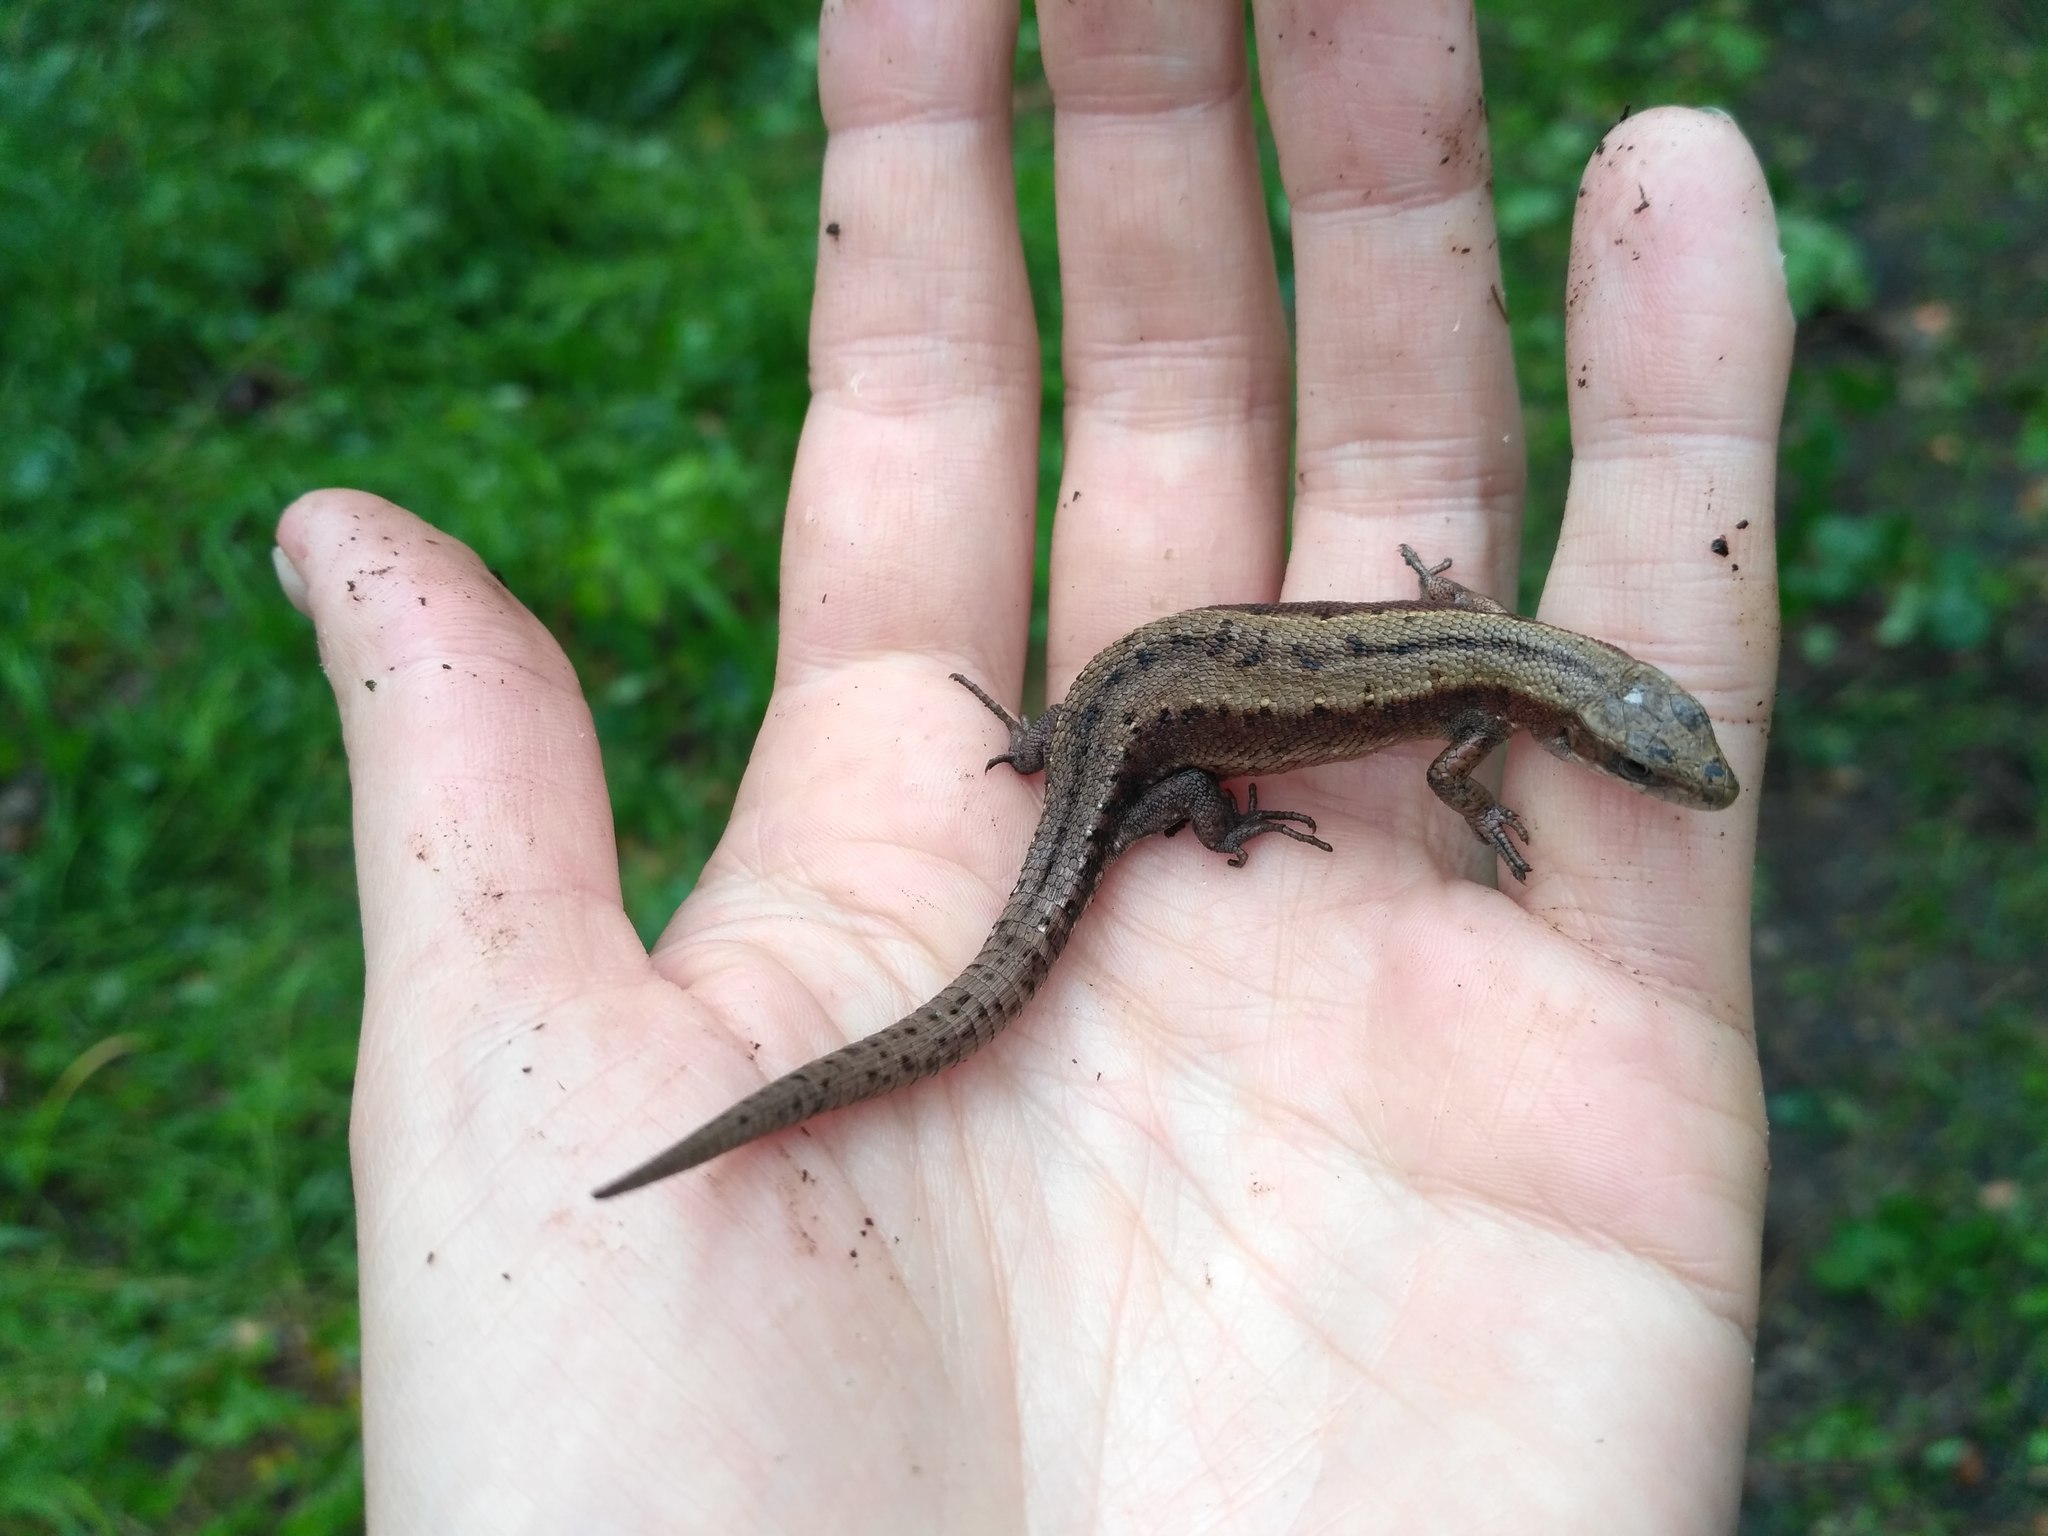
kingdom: Animalia
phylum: Chordata
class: Squamata
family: Lacertidae
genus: Zootoca
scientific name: Zootoca vivipara
